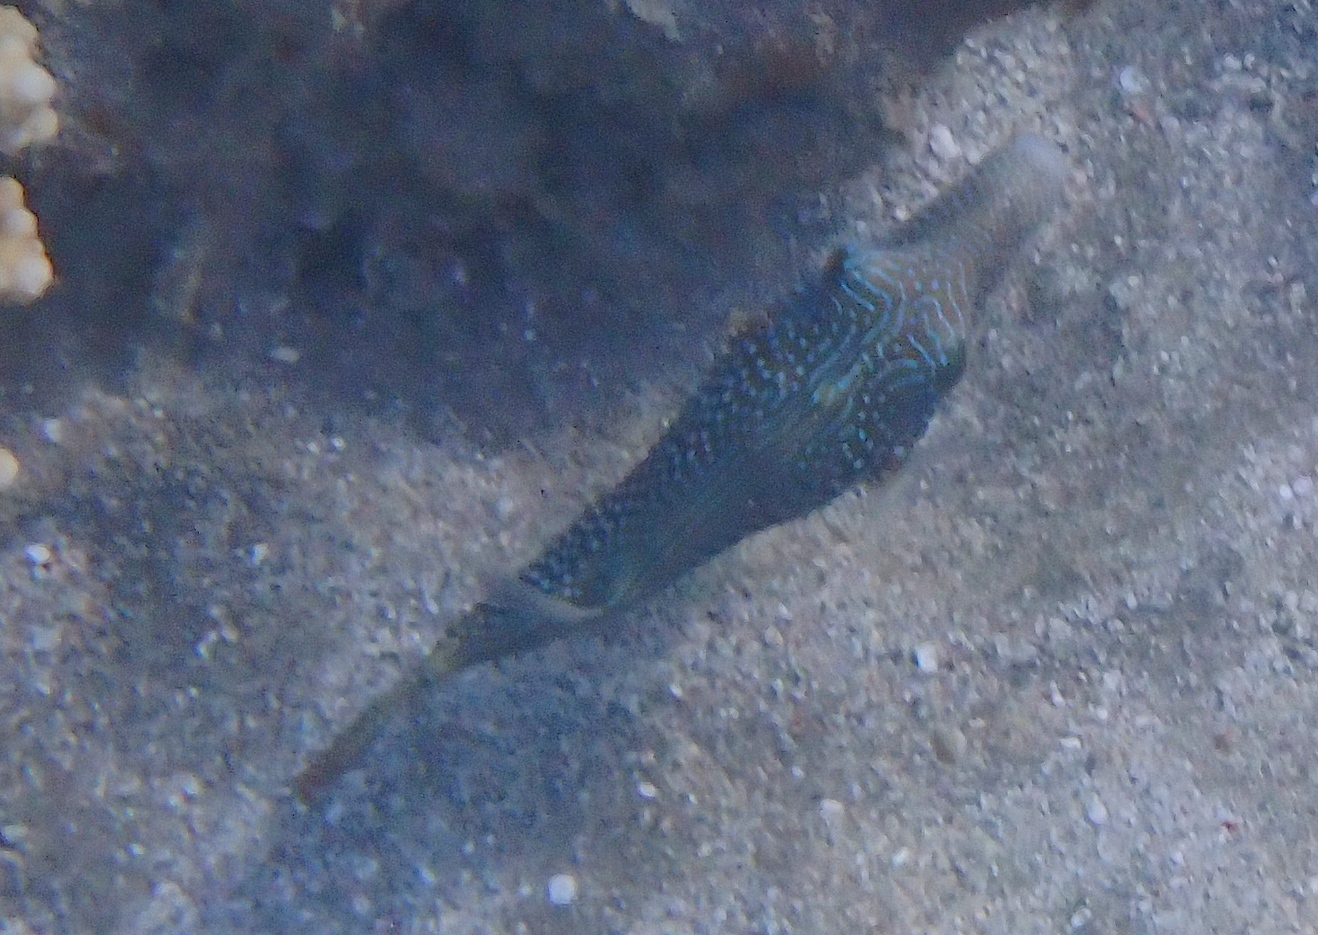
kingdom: Animalia
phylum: Chordata
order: Tetraodontiformes
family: Tetraodontidae
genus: Canthigaster
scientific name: Canthigaster margaritata
